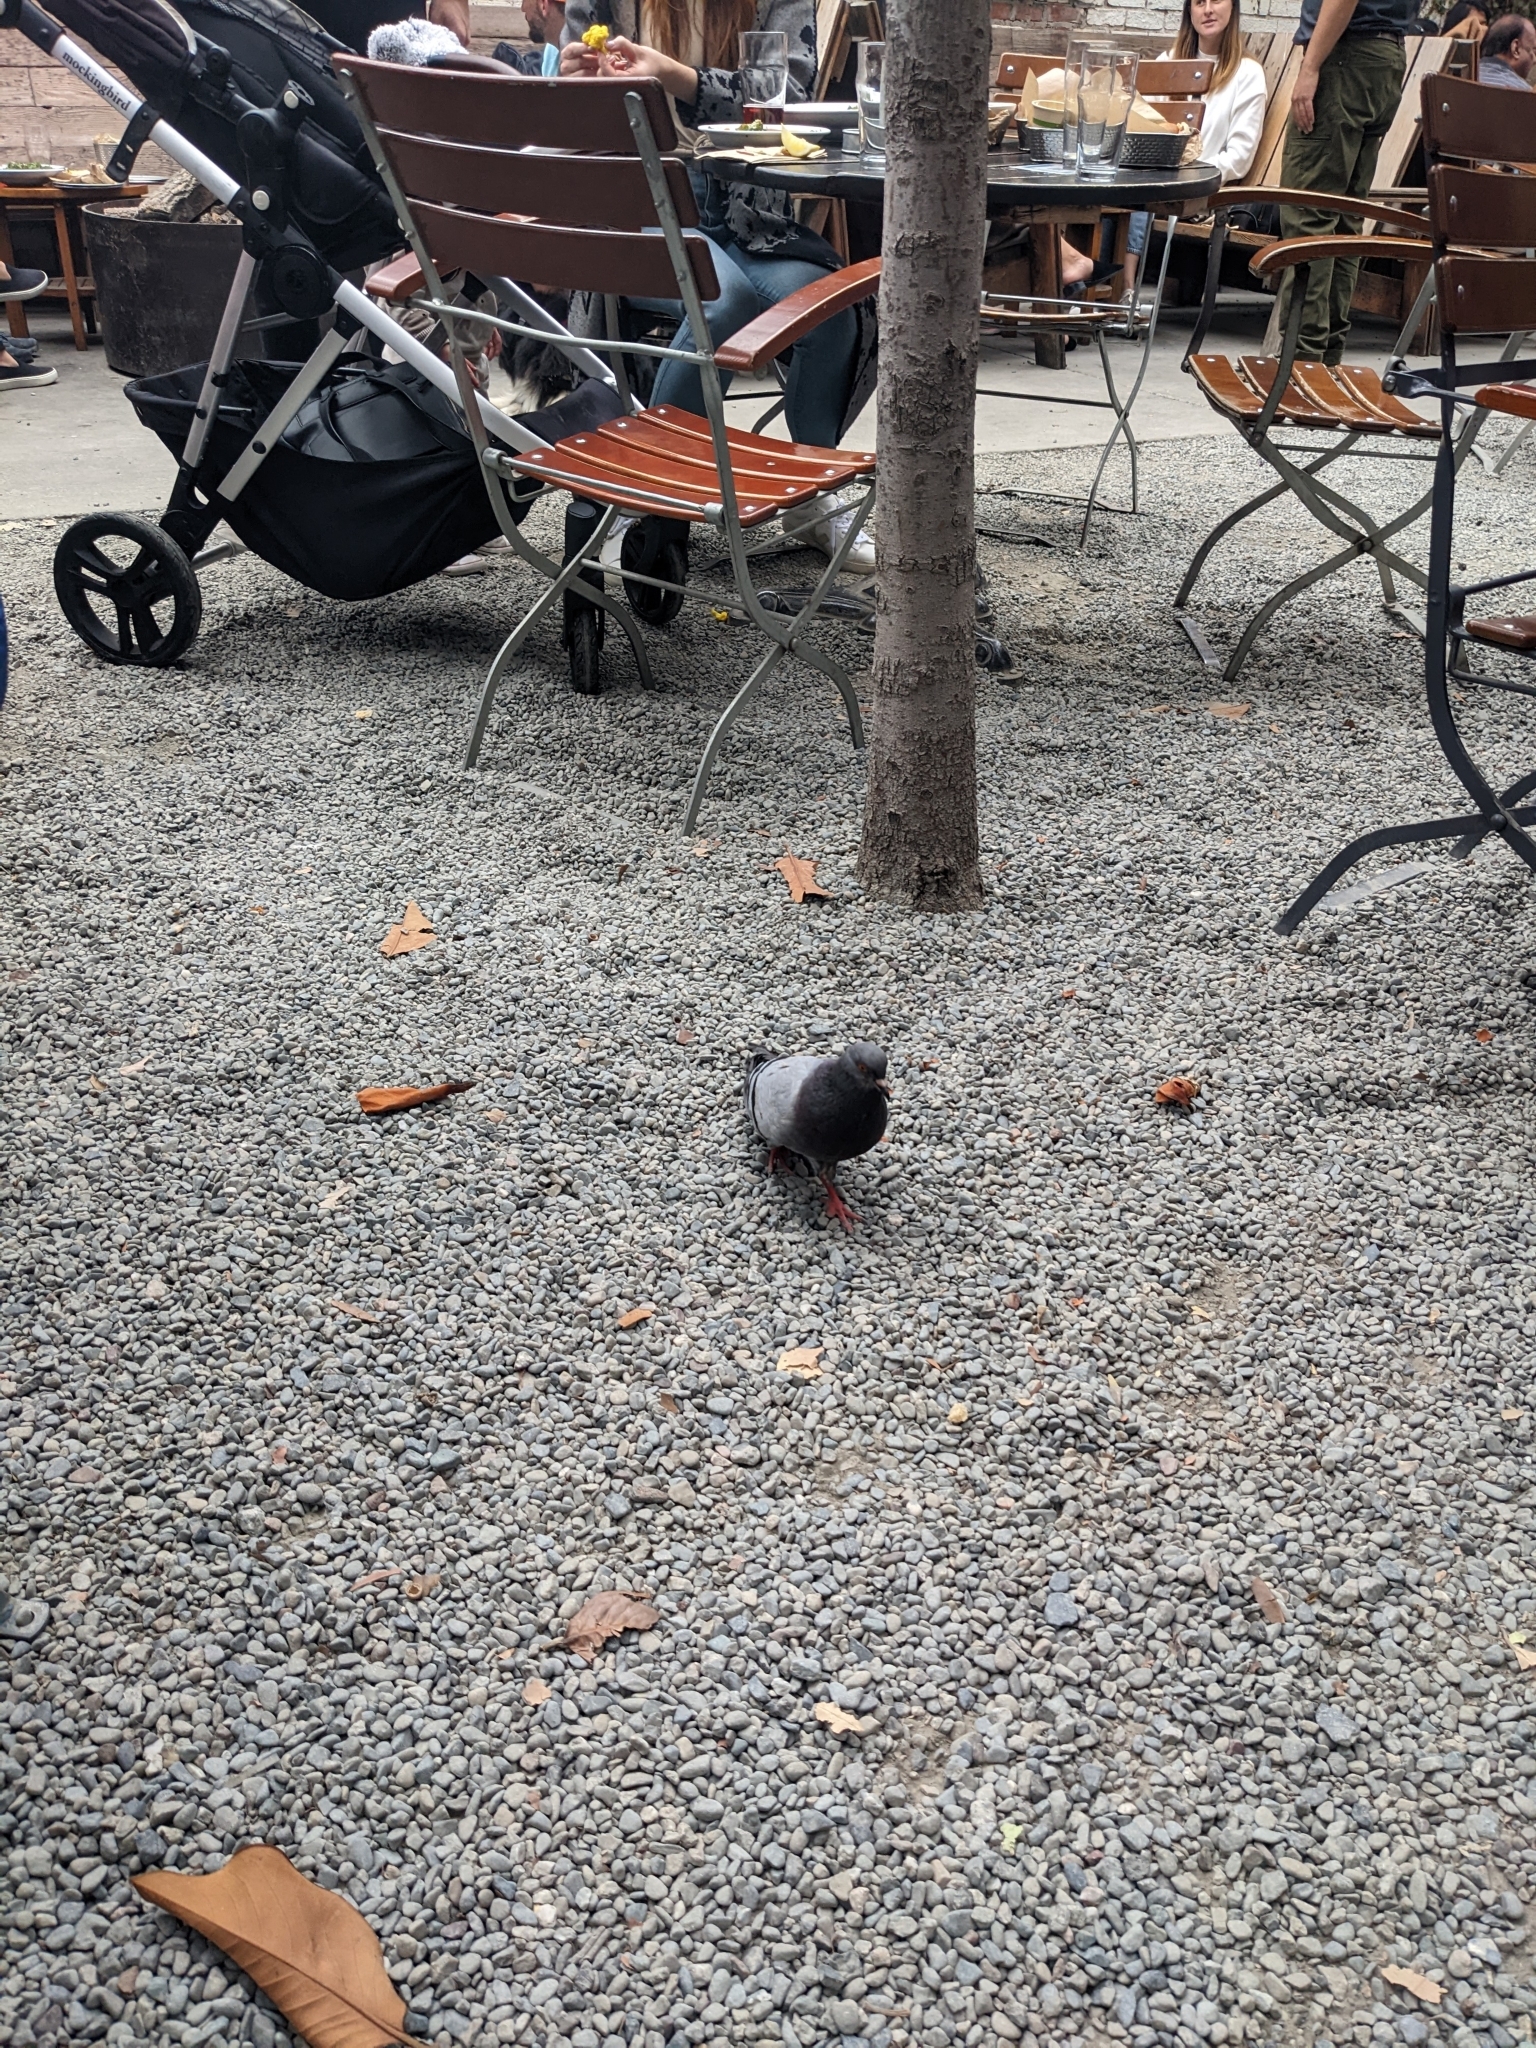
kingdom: Animalia
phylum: Chordata
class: Aves
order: Columbiformes
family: Columbidae
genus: Columba
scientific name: Columba livia
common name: Rock pigeon
